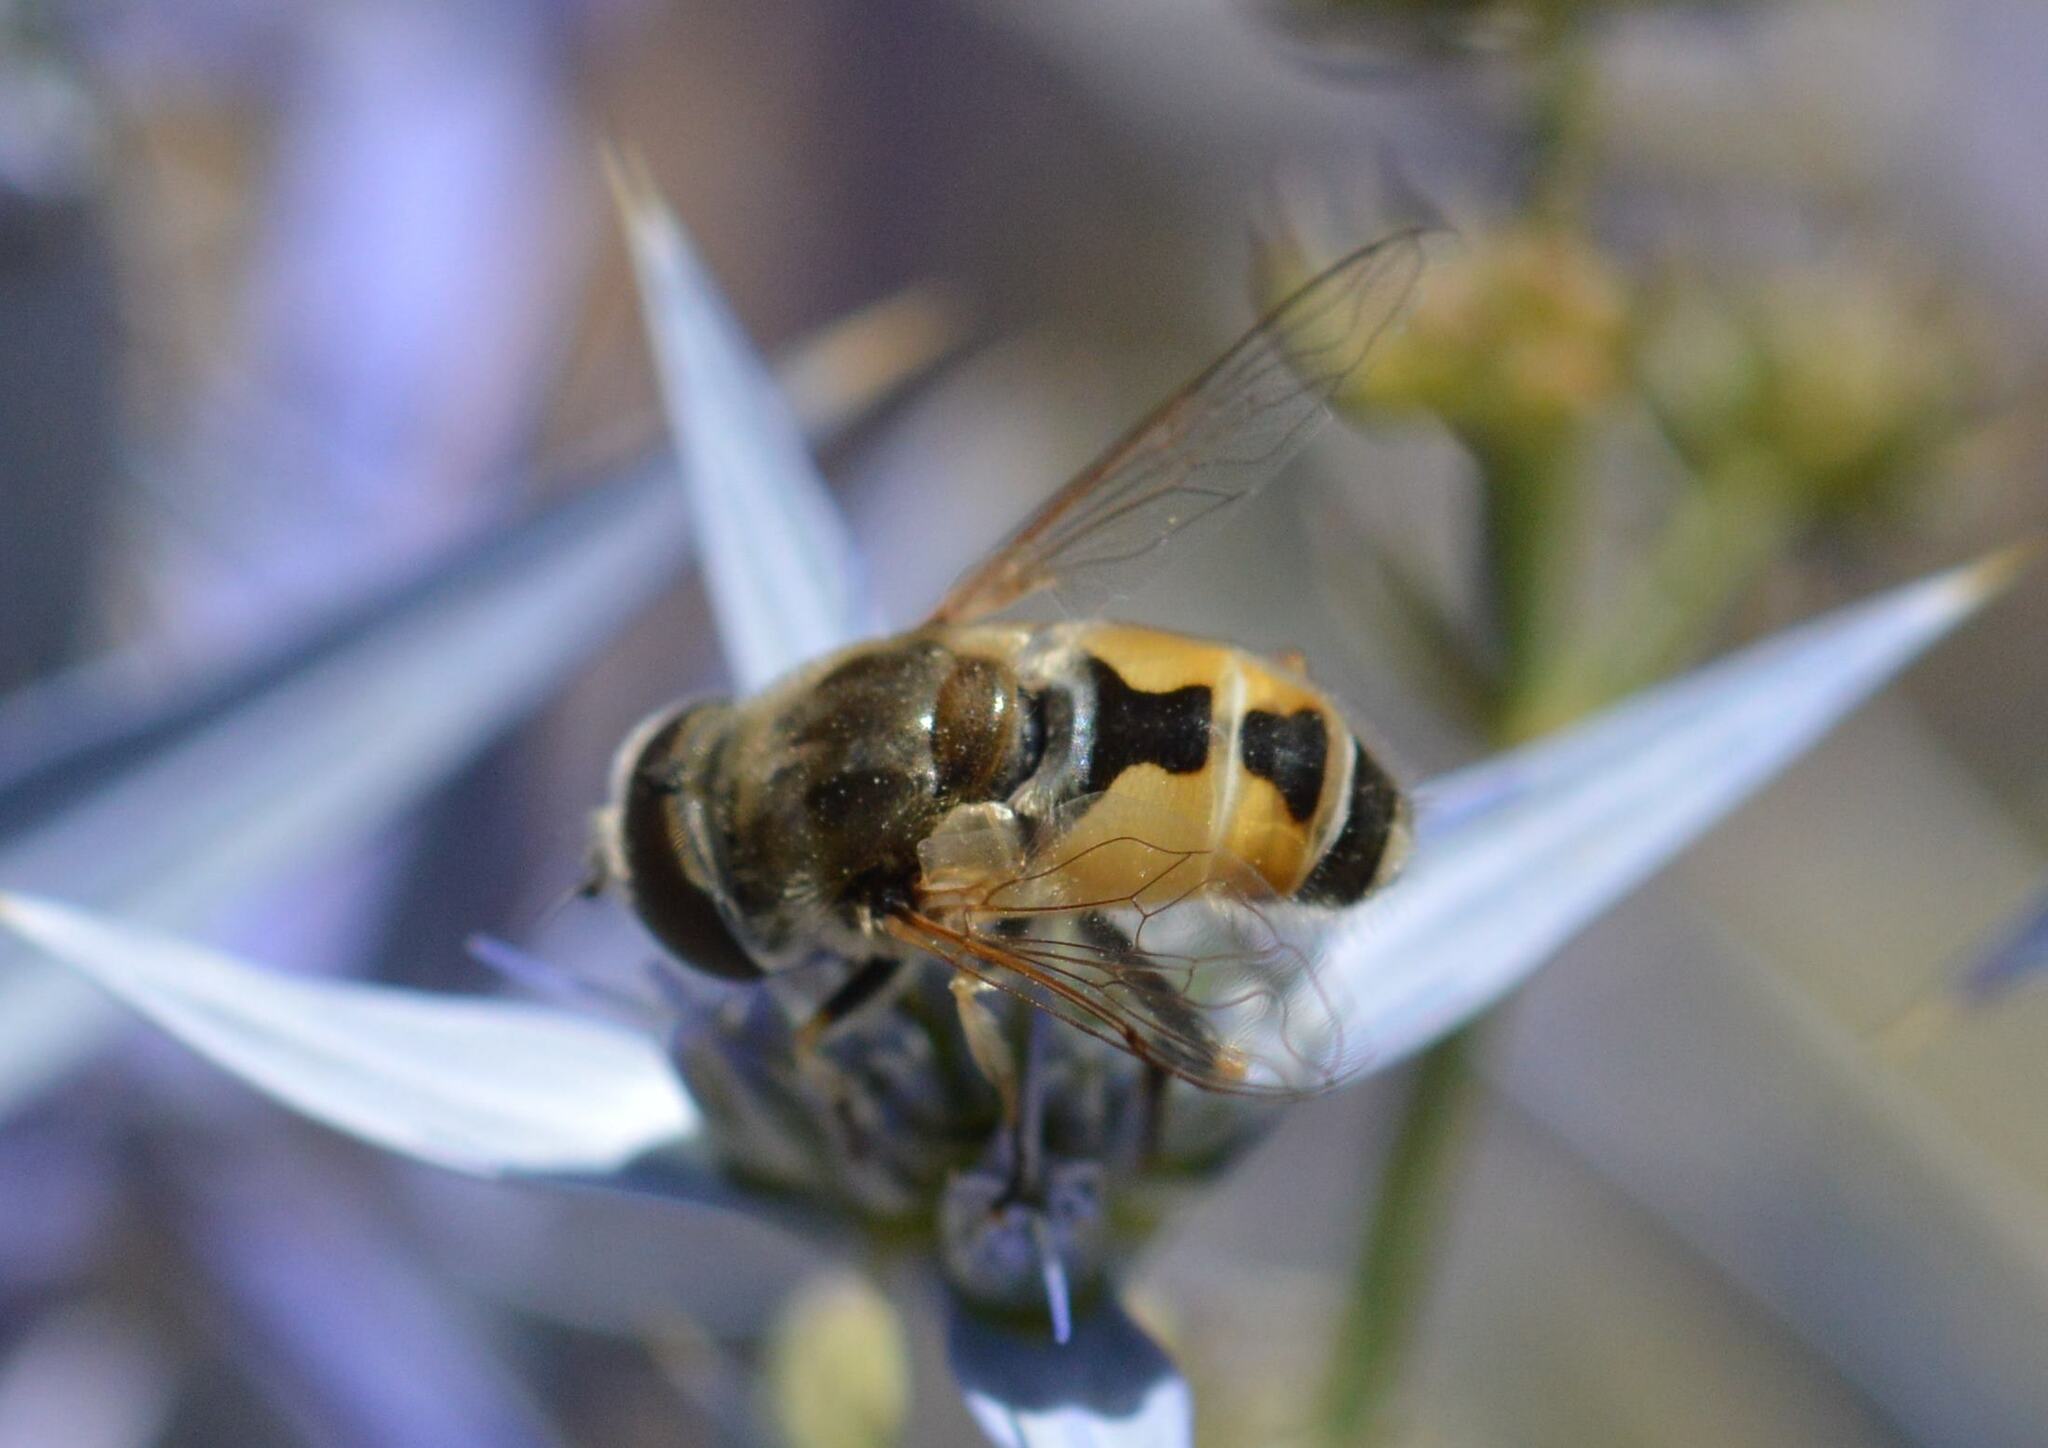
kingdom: Animalia
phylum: Arthropoda
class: Insecta
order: Diptera
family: Syrphidae
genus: Eristalis
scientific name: Eristalis arbustorum
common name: Hover fly
